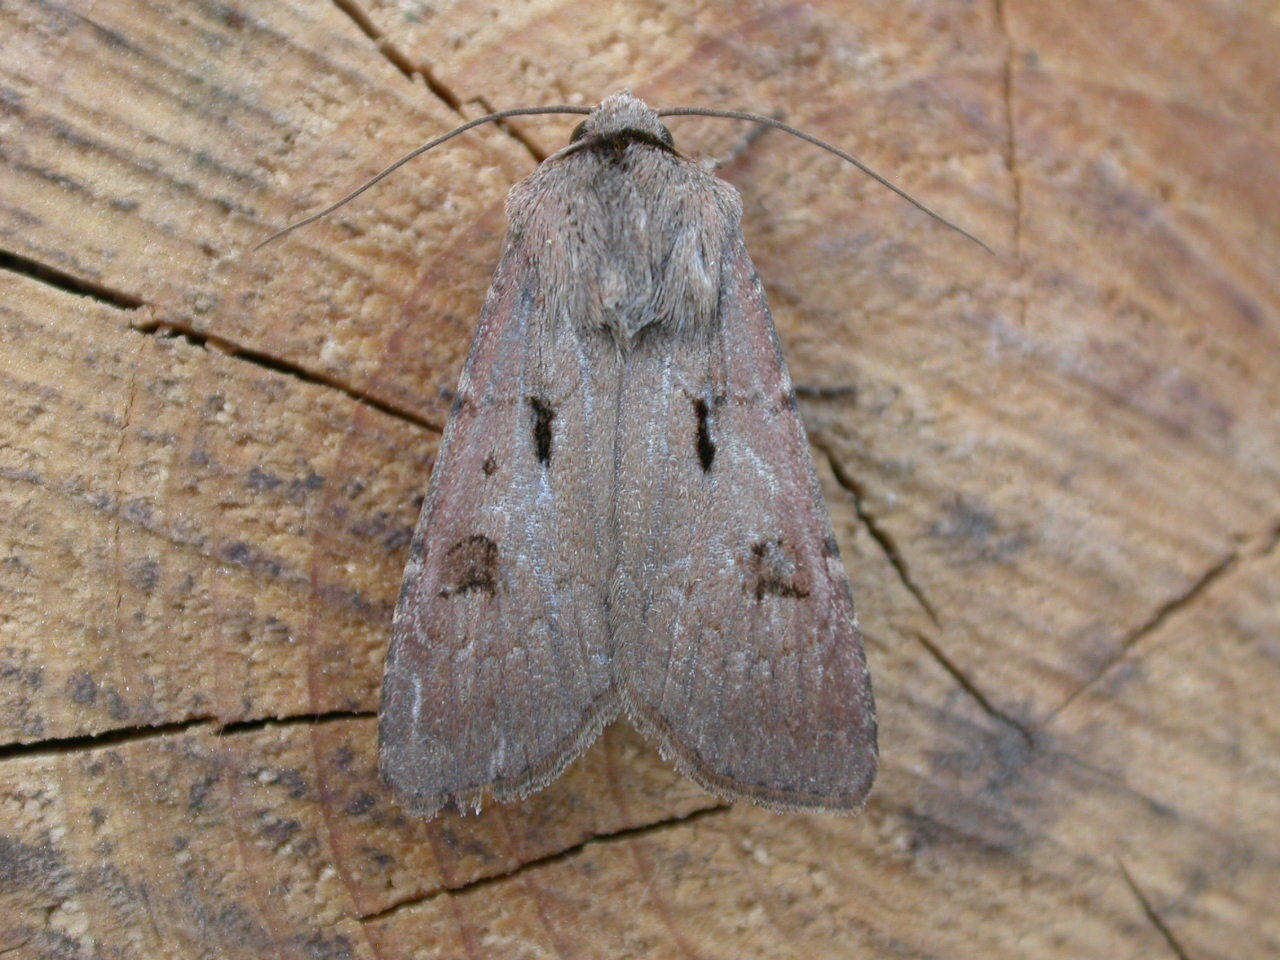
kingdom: Animalia
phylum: Arthropoda
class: Insecta
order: Lepidoptera
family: Noctuidae
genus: Agrotis
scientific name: Agrotis exclamationis
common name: Heart and dart
